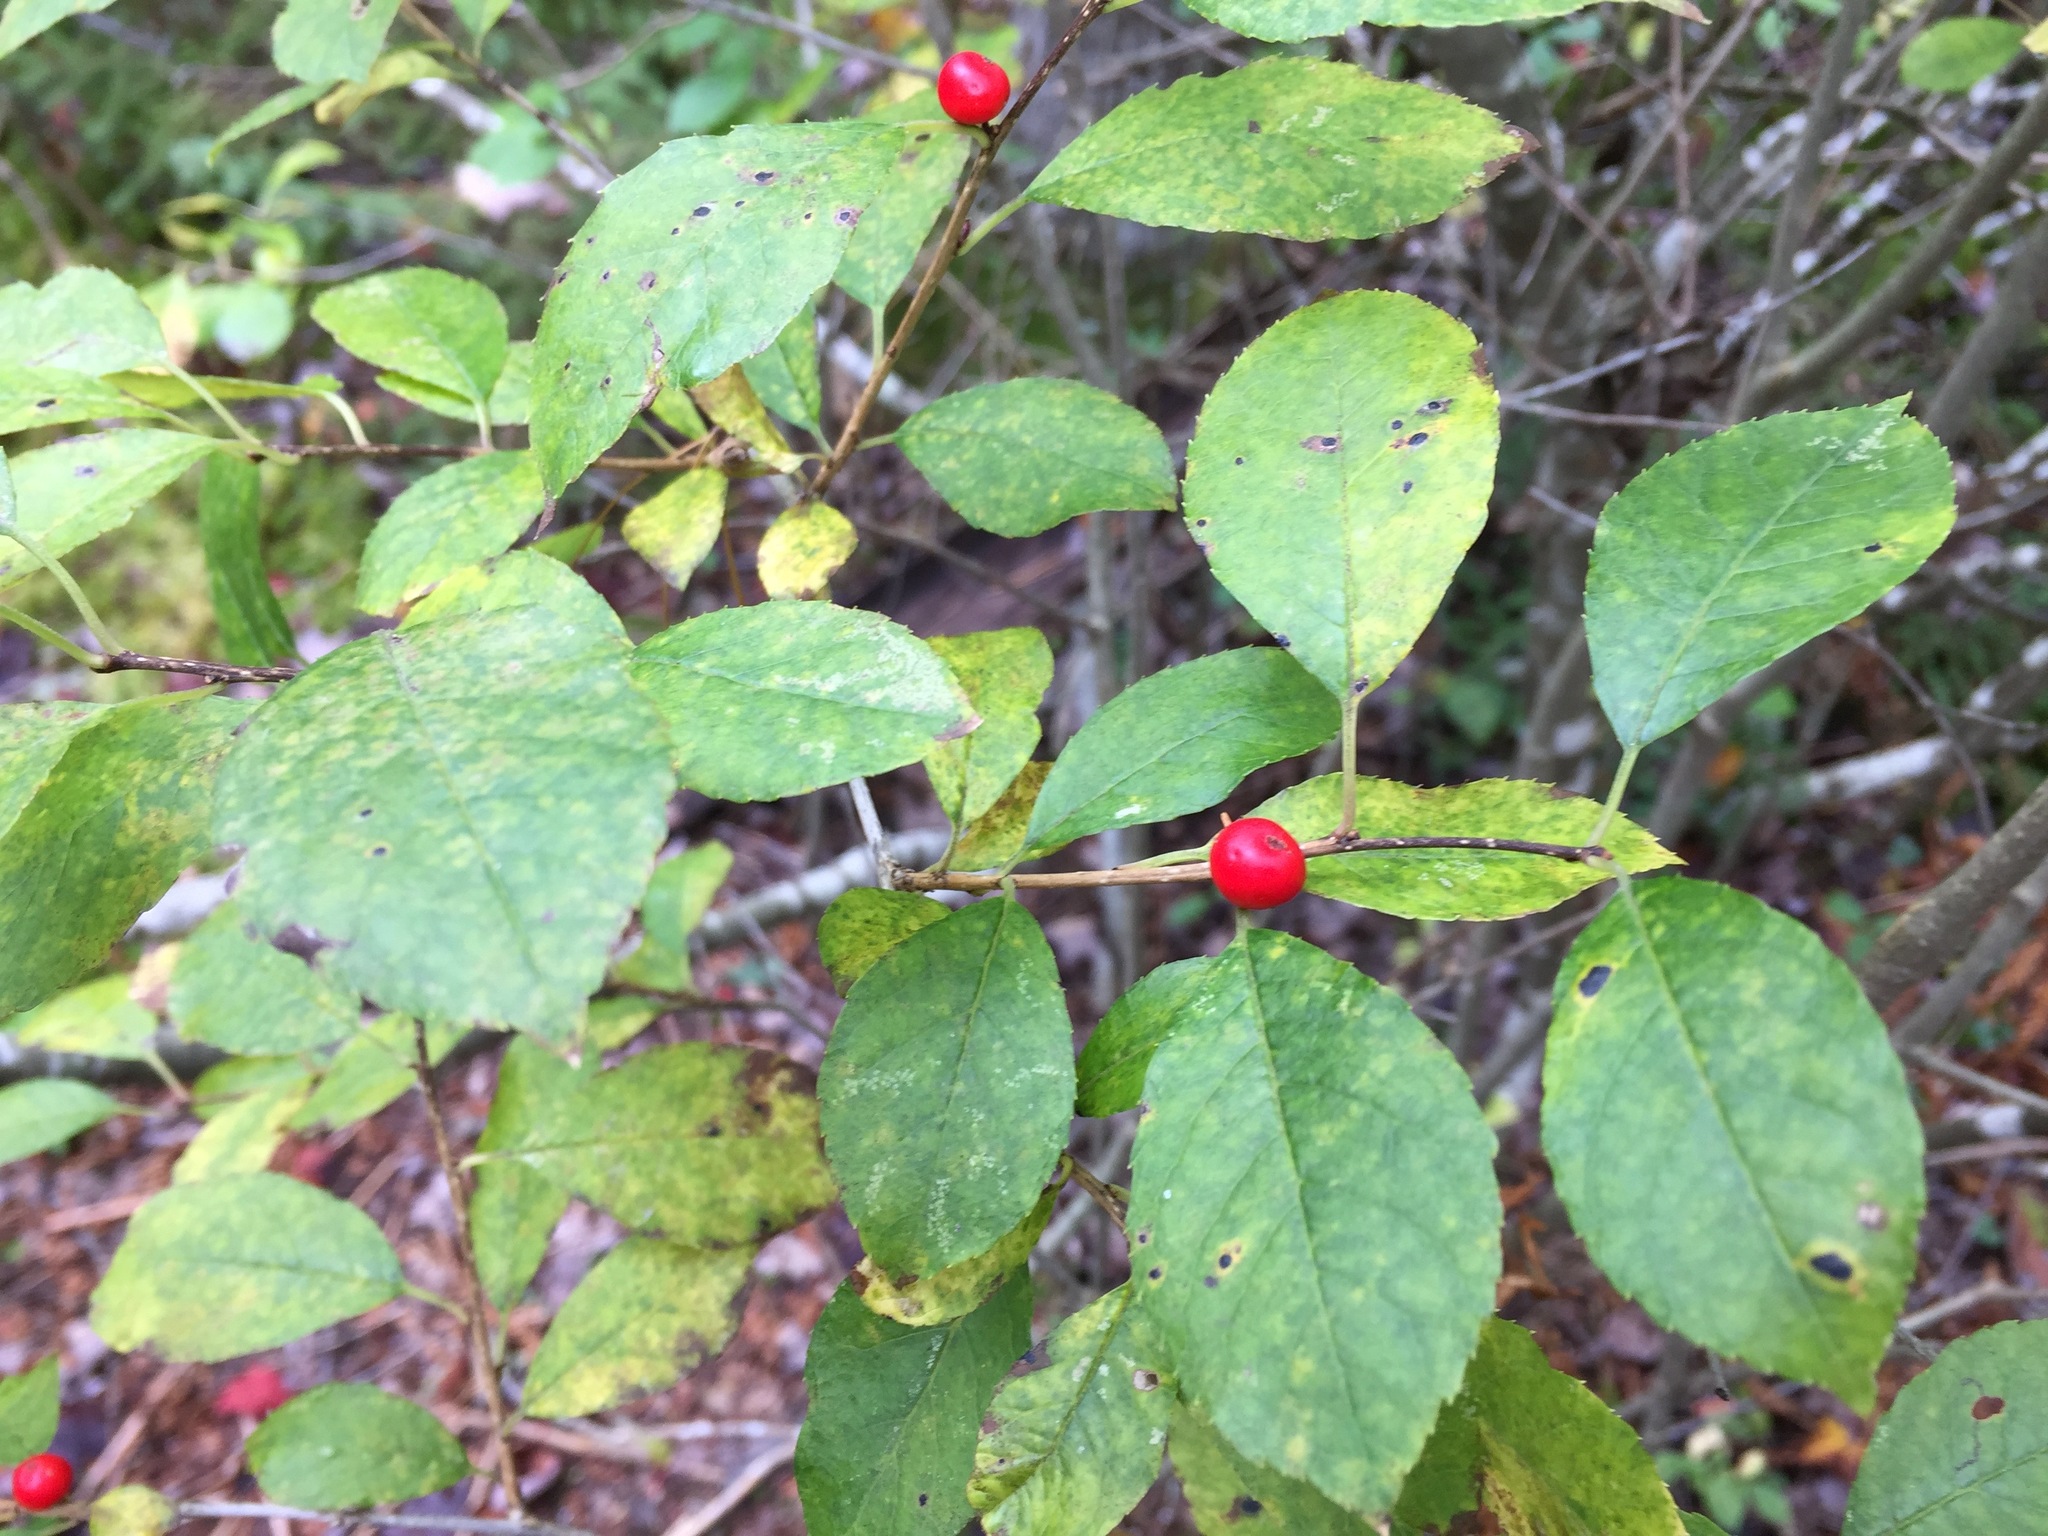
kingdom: Plantae
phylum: Tracheophyta
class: Magnoliopsida
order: Aquifoliales
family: Aquifoliaceae
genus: Ilex
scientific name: Ilex verticillata
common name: Virginia winterberry
